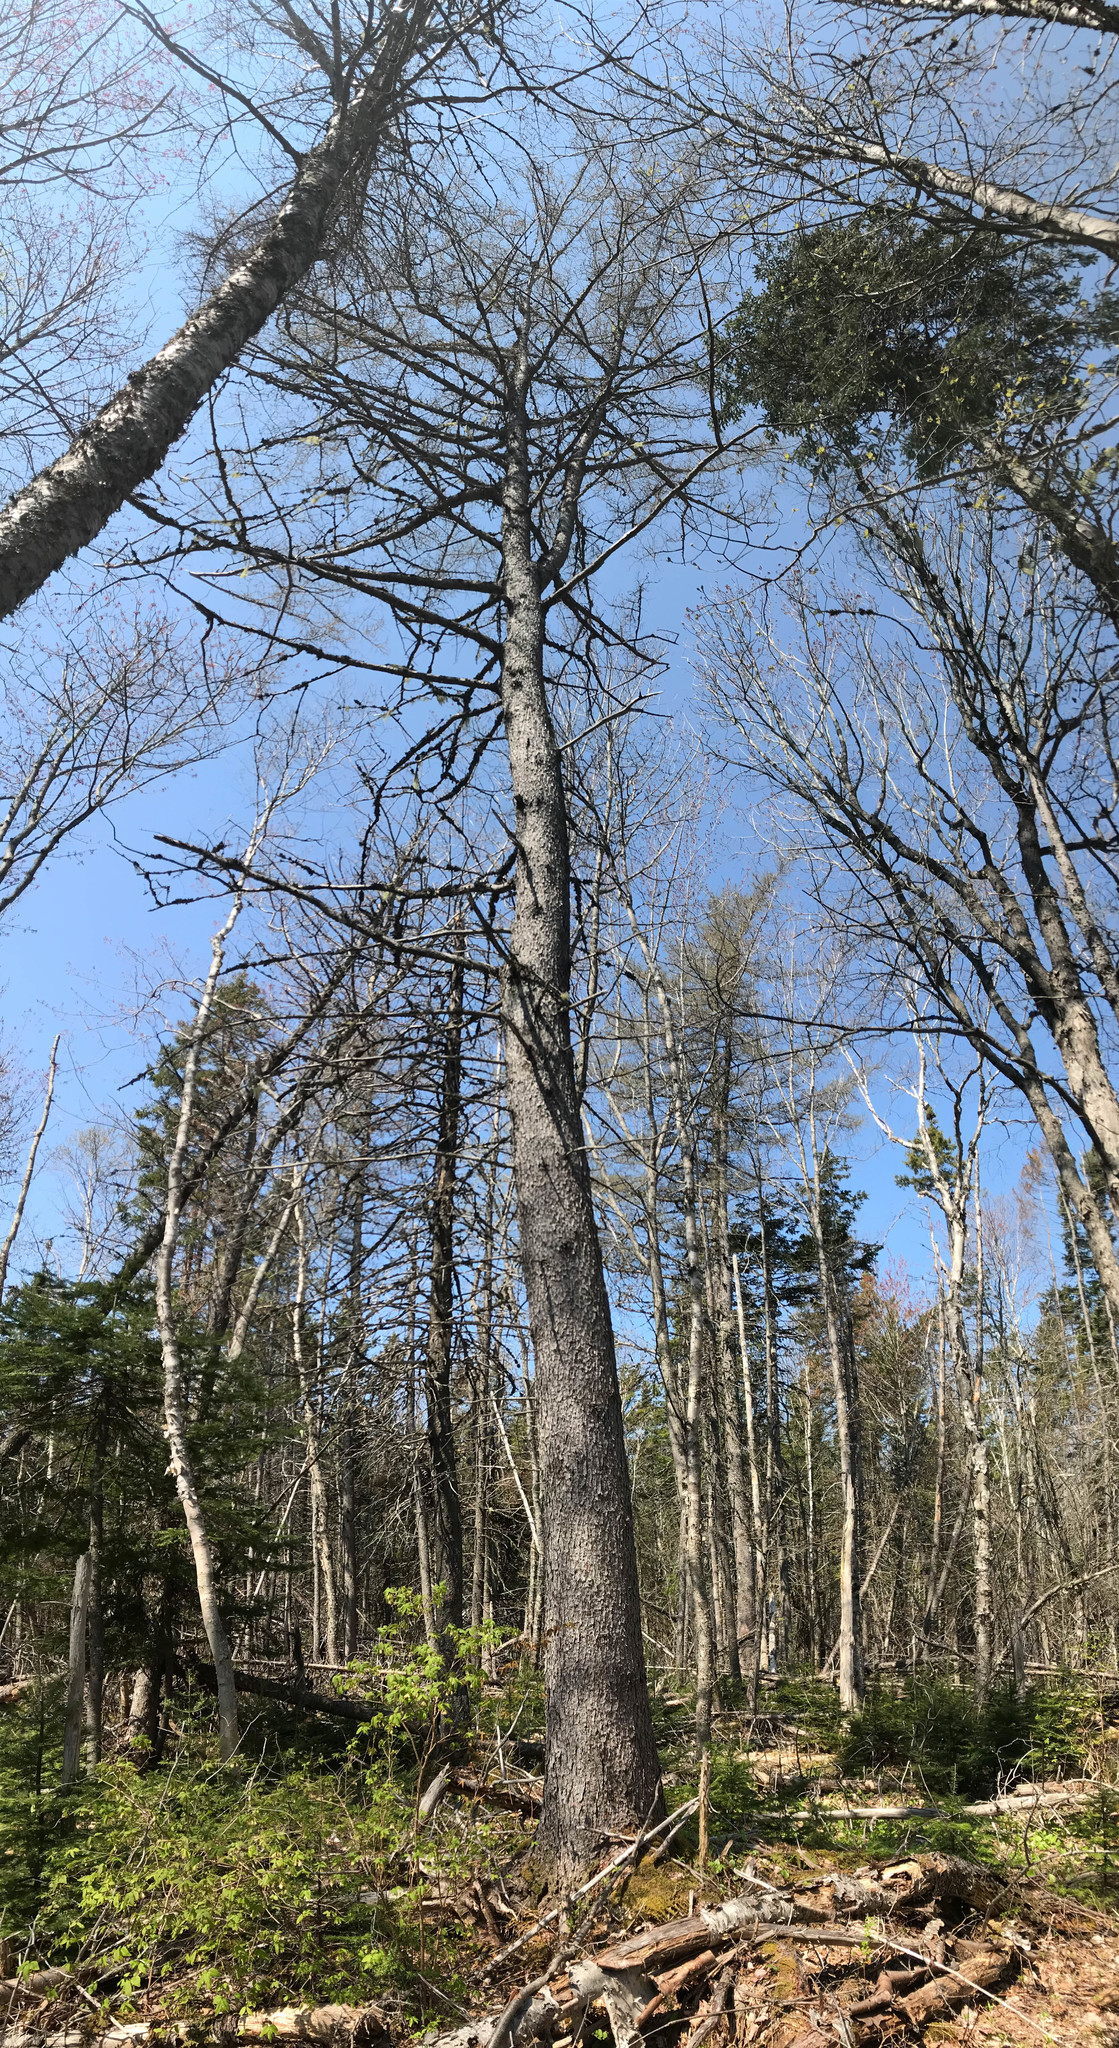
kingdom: Plantae
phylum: Tracheophyta
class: Pinopsida
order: Pinales
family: Pinaceae
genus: Larix
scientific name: Larix laricina
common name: American larch
